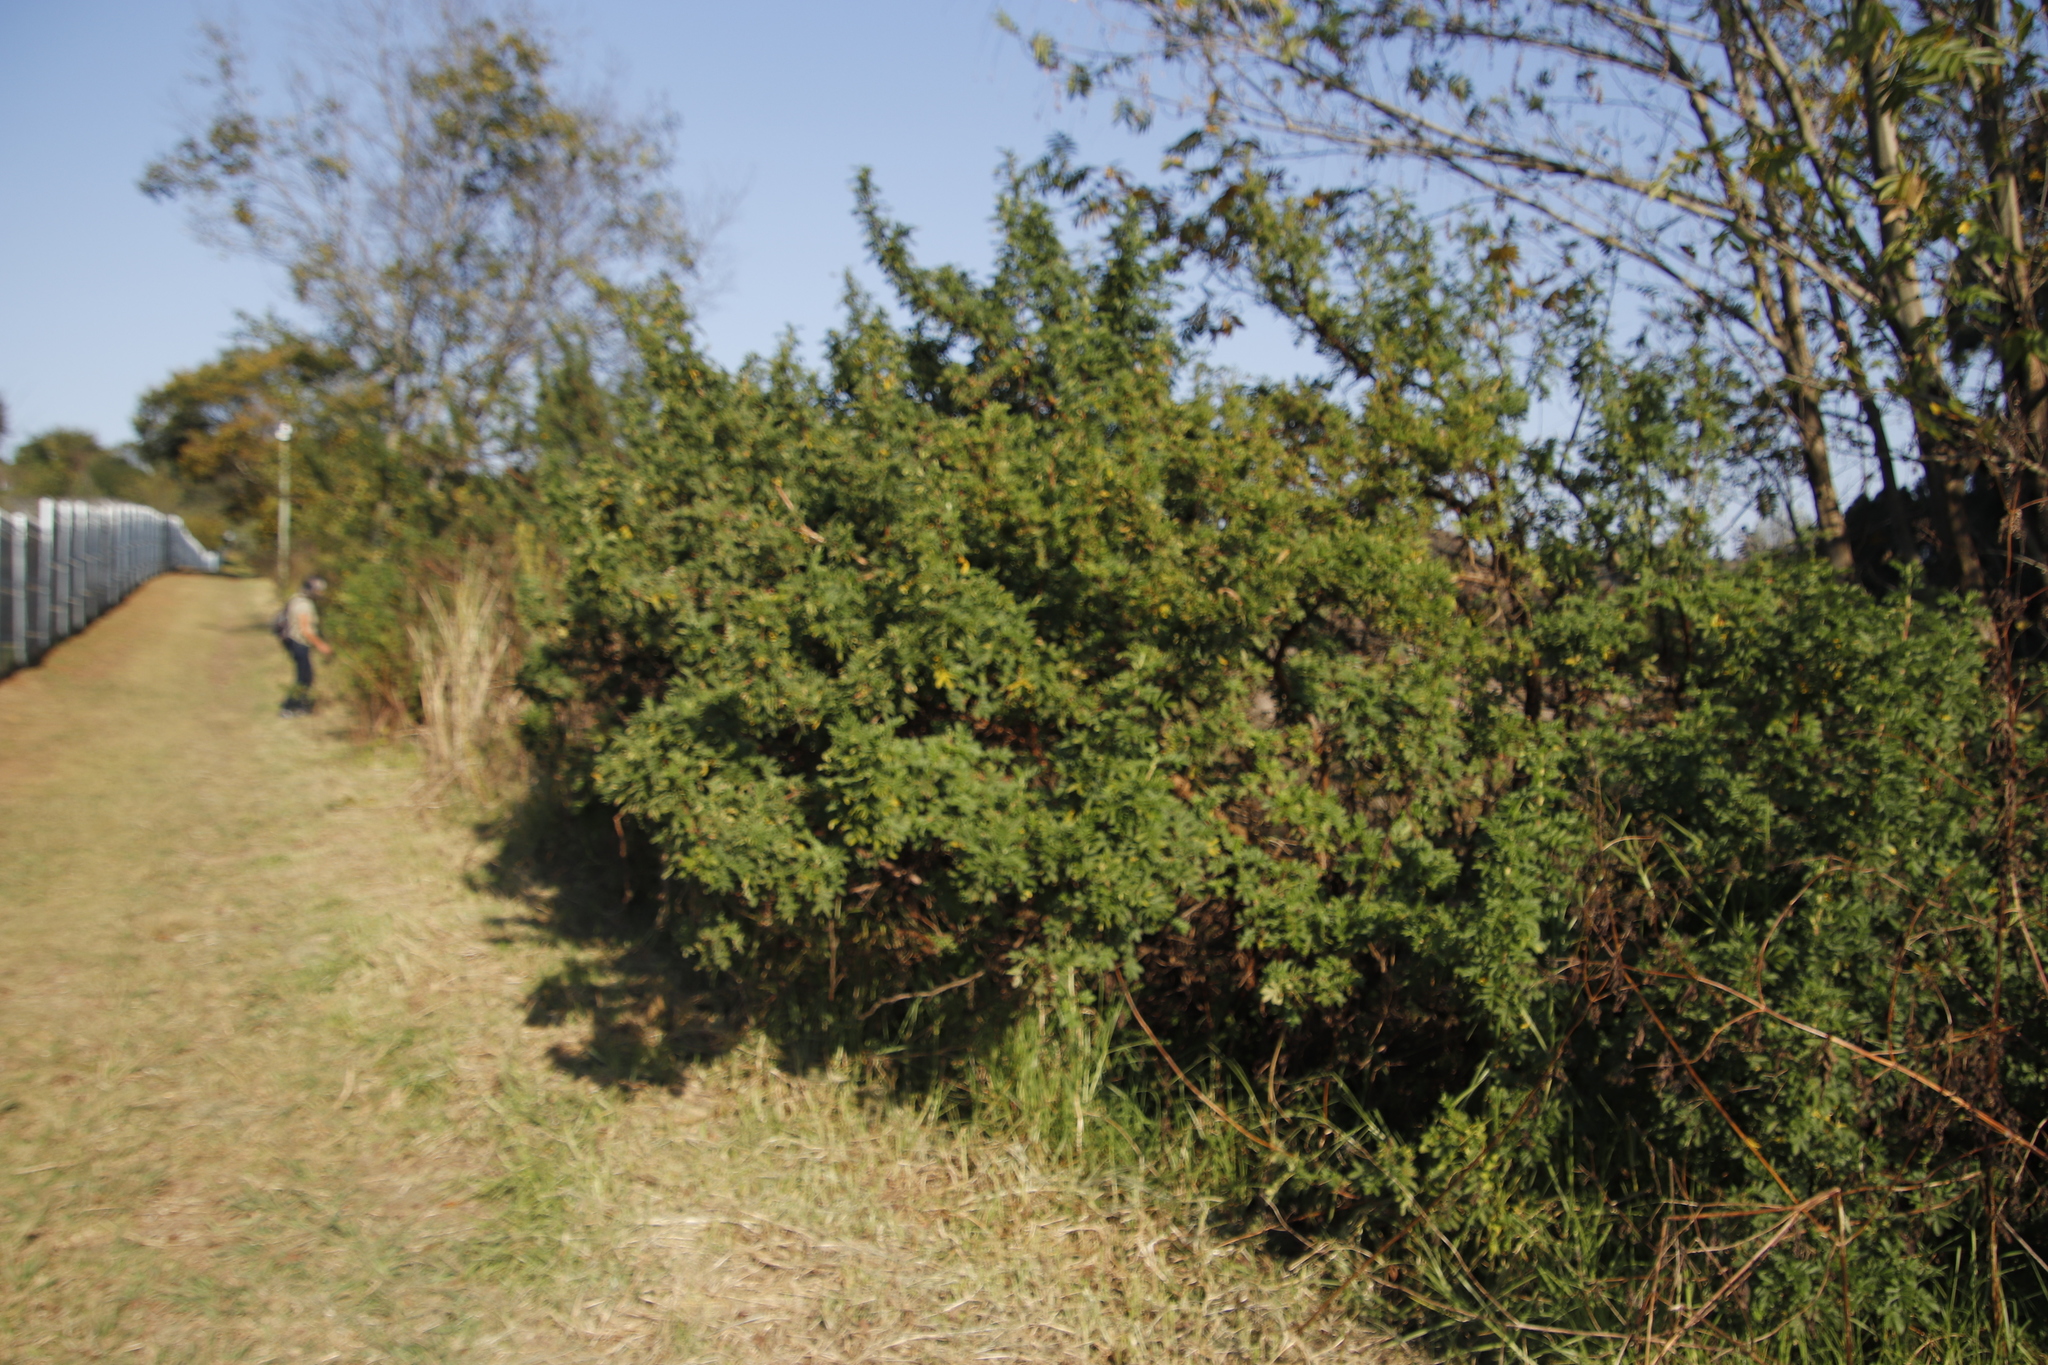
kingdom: Plantae
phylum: Tracheophyta
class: Magnoliopsida
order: Rosales
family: Rosaceae
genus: Leucosidea
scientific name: Leucosidea sericea
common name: Oldwood
